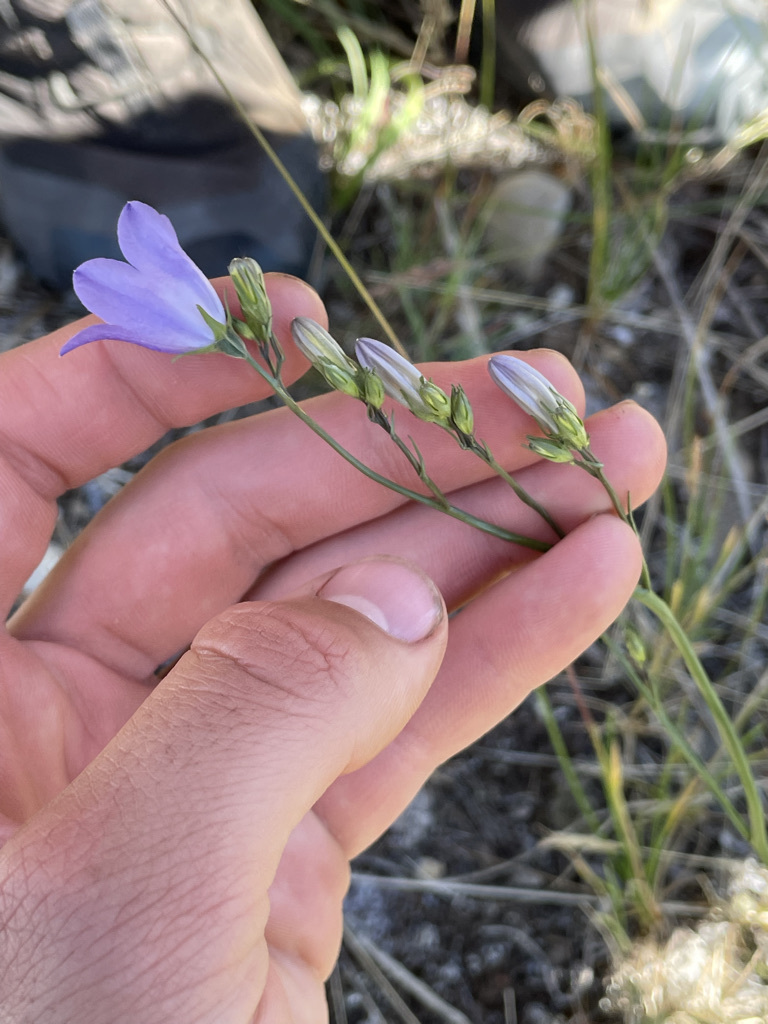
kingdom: Plantae
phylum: Tracheophyta
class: Magnoliopsida
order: Asterales
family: Campanulaceae
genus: Campanula
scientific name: Campanula alaskana
